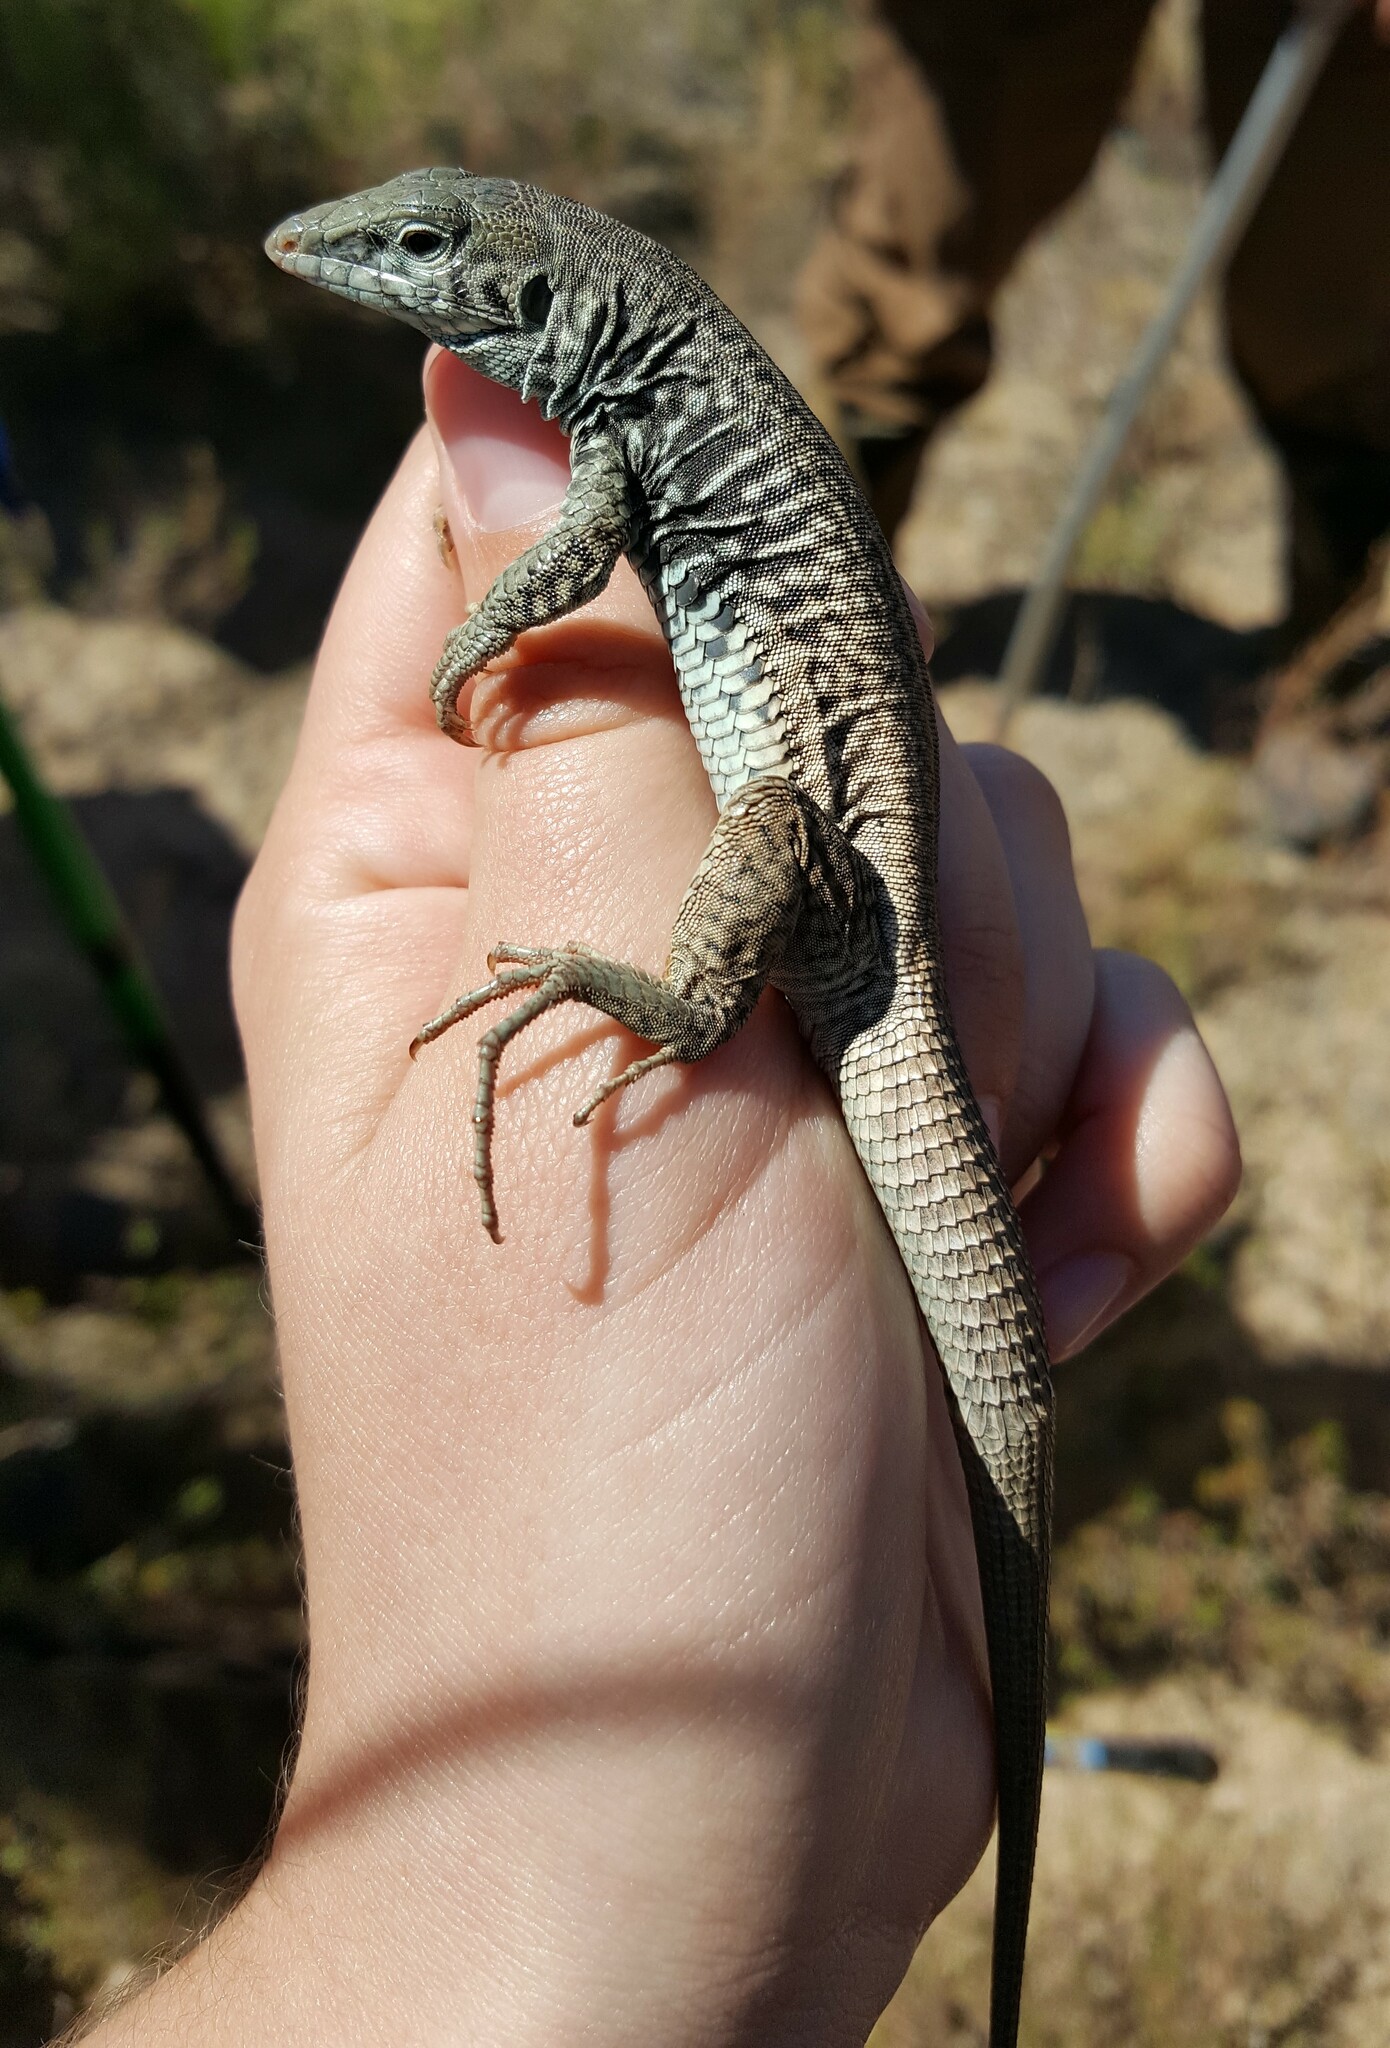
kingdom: Animalia
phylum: Chordata
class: Squamata
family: Teiidae
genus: Aspidoscelis
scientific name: Aspidoscelis tigris
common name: Tiger whiptail
